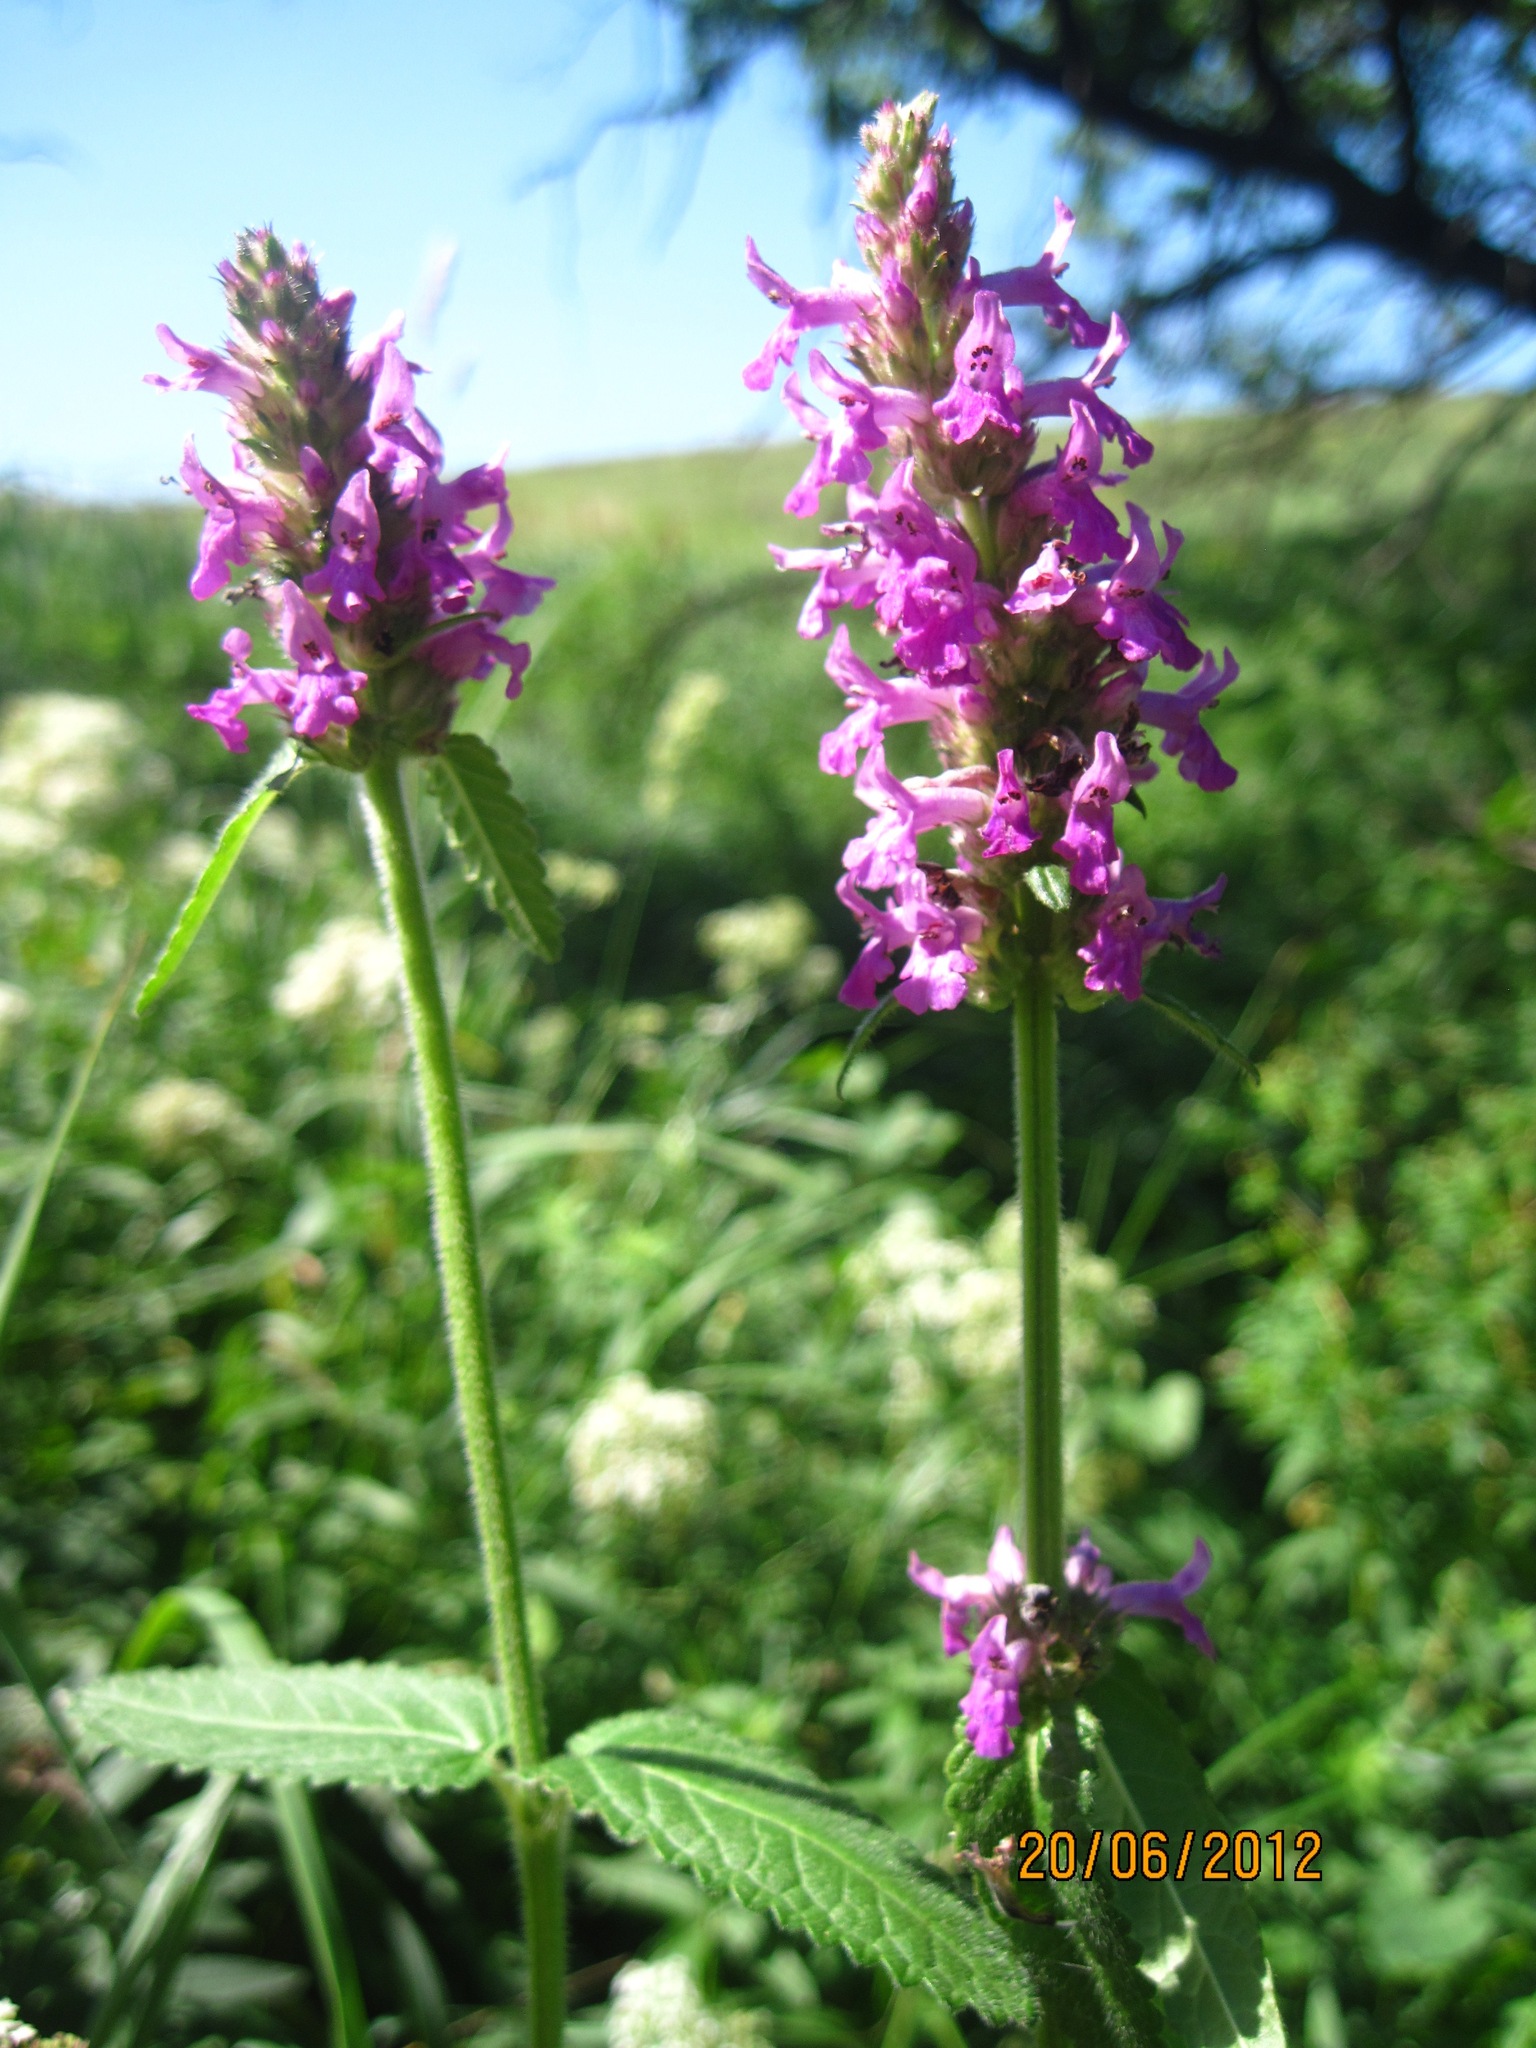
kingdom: Plantae
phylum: Tracheophyta
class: Magnoliopsida
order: Lamiales
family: Lamiaceae
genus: Betonica
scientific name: Betonica officinalis
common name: Bishop's-wort
